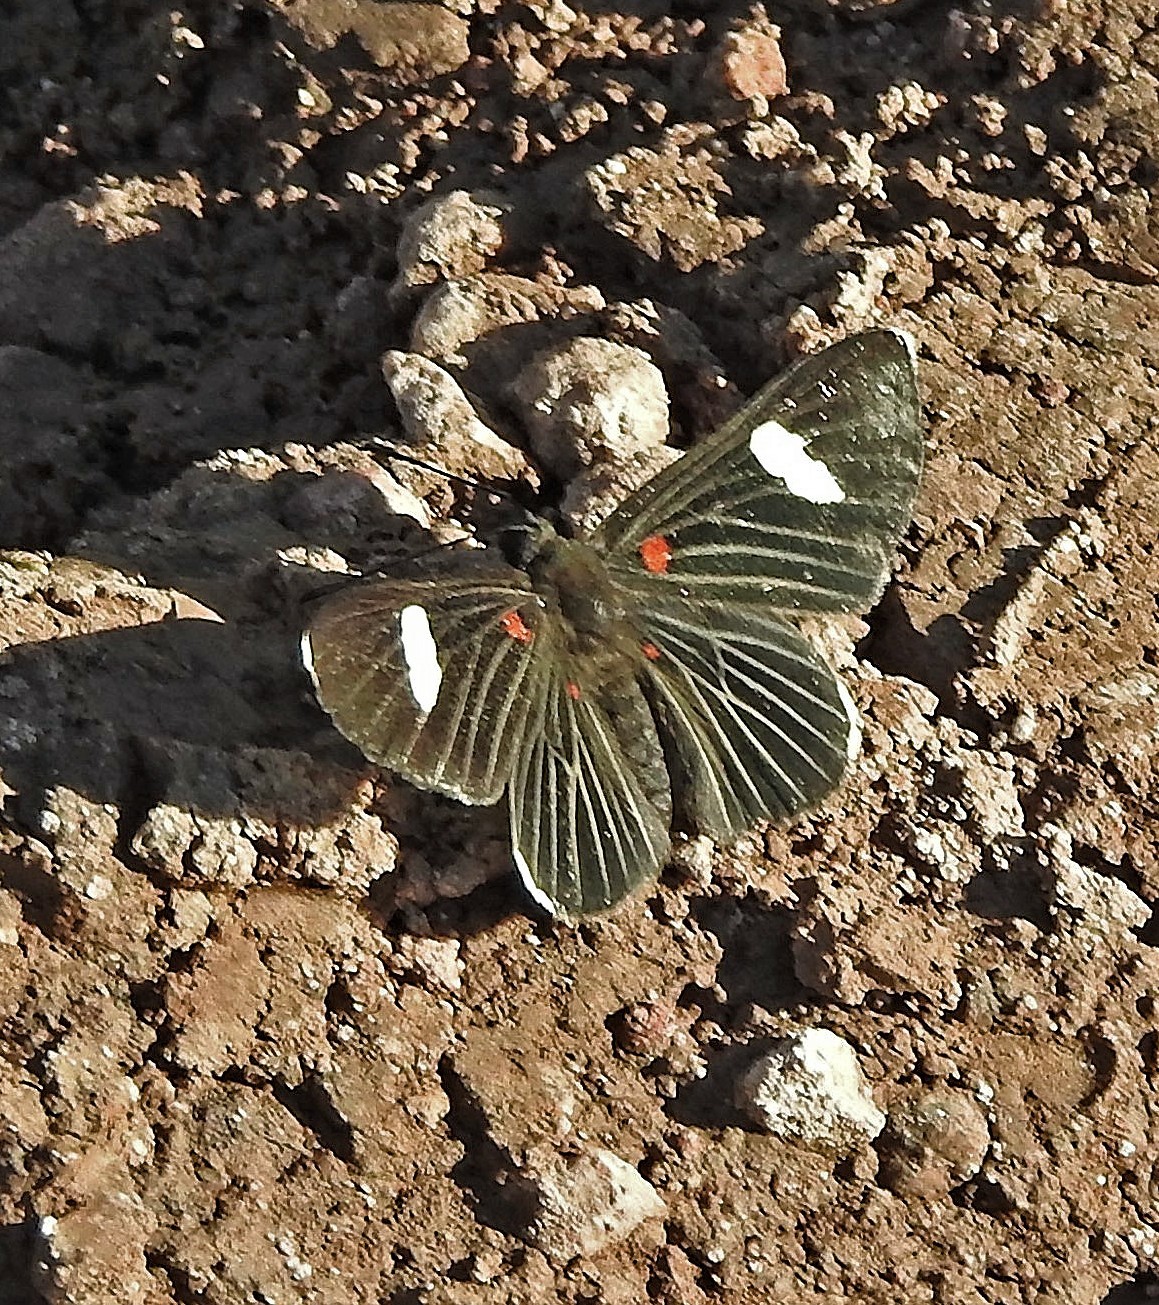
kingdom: Animalia
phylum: Arthropoda
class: Insecta
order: Lepidoptera
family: Lycaenidae
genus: Melanis
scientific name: Melanis aegates
